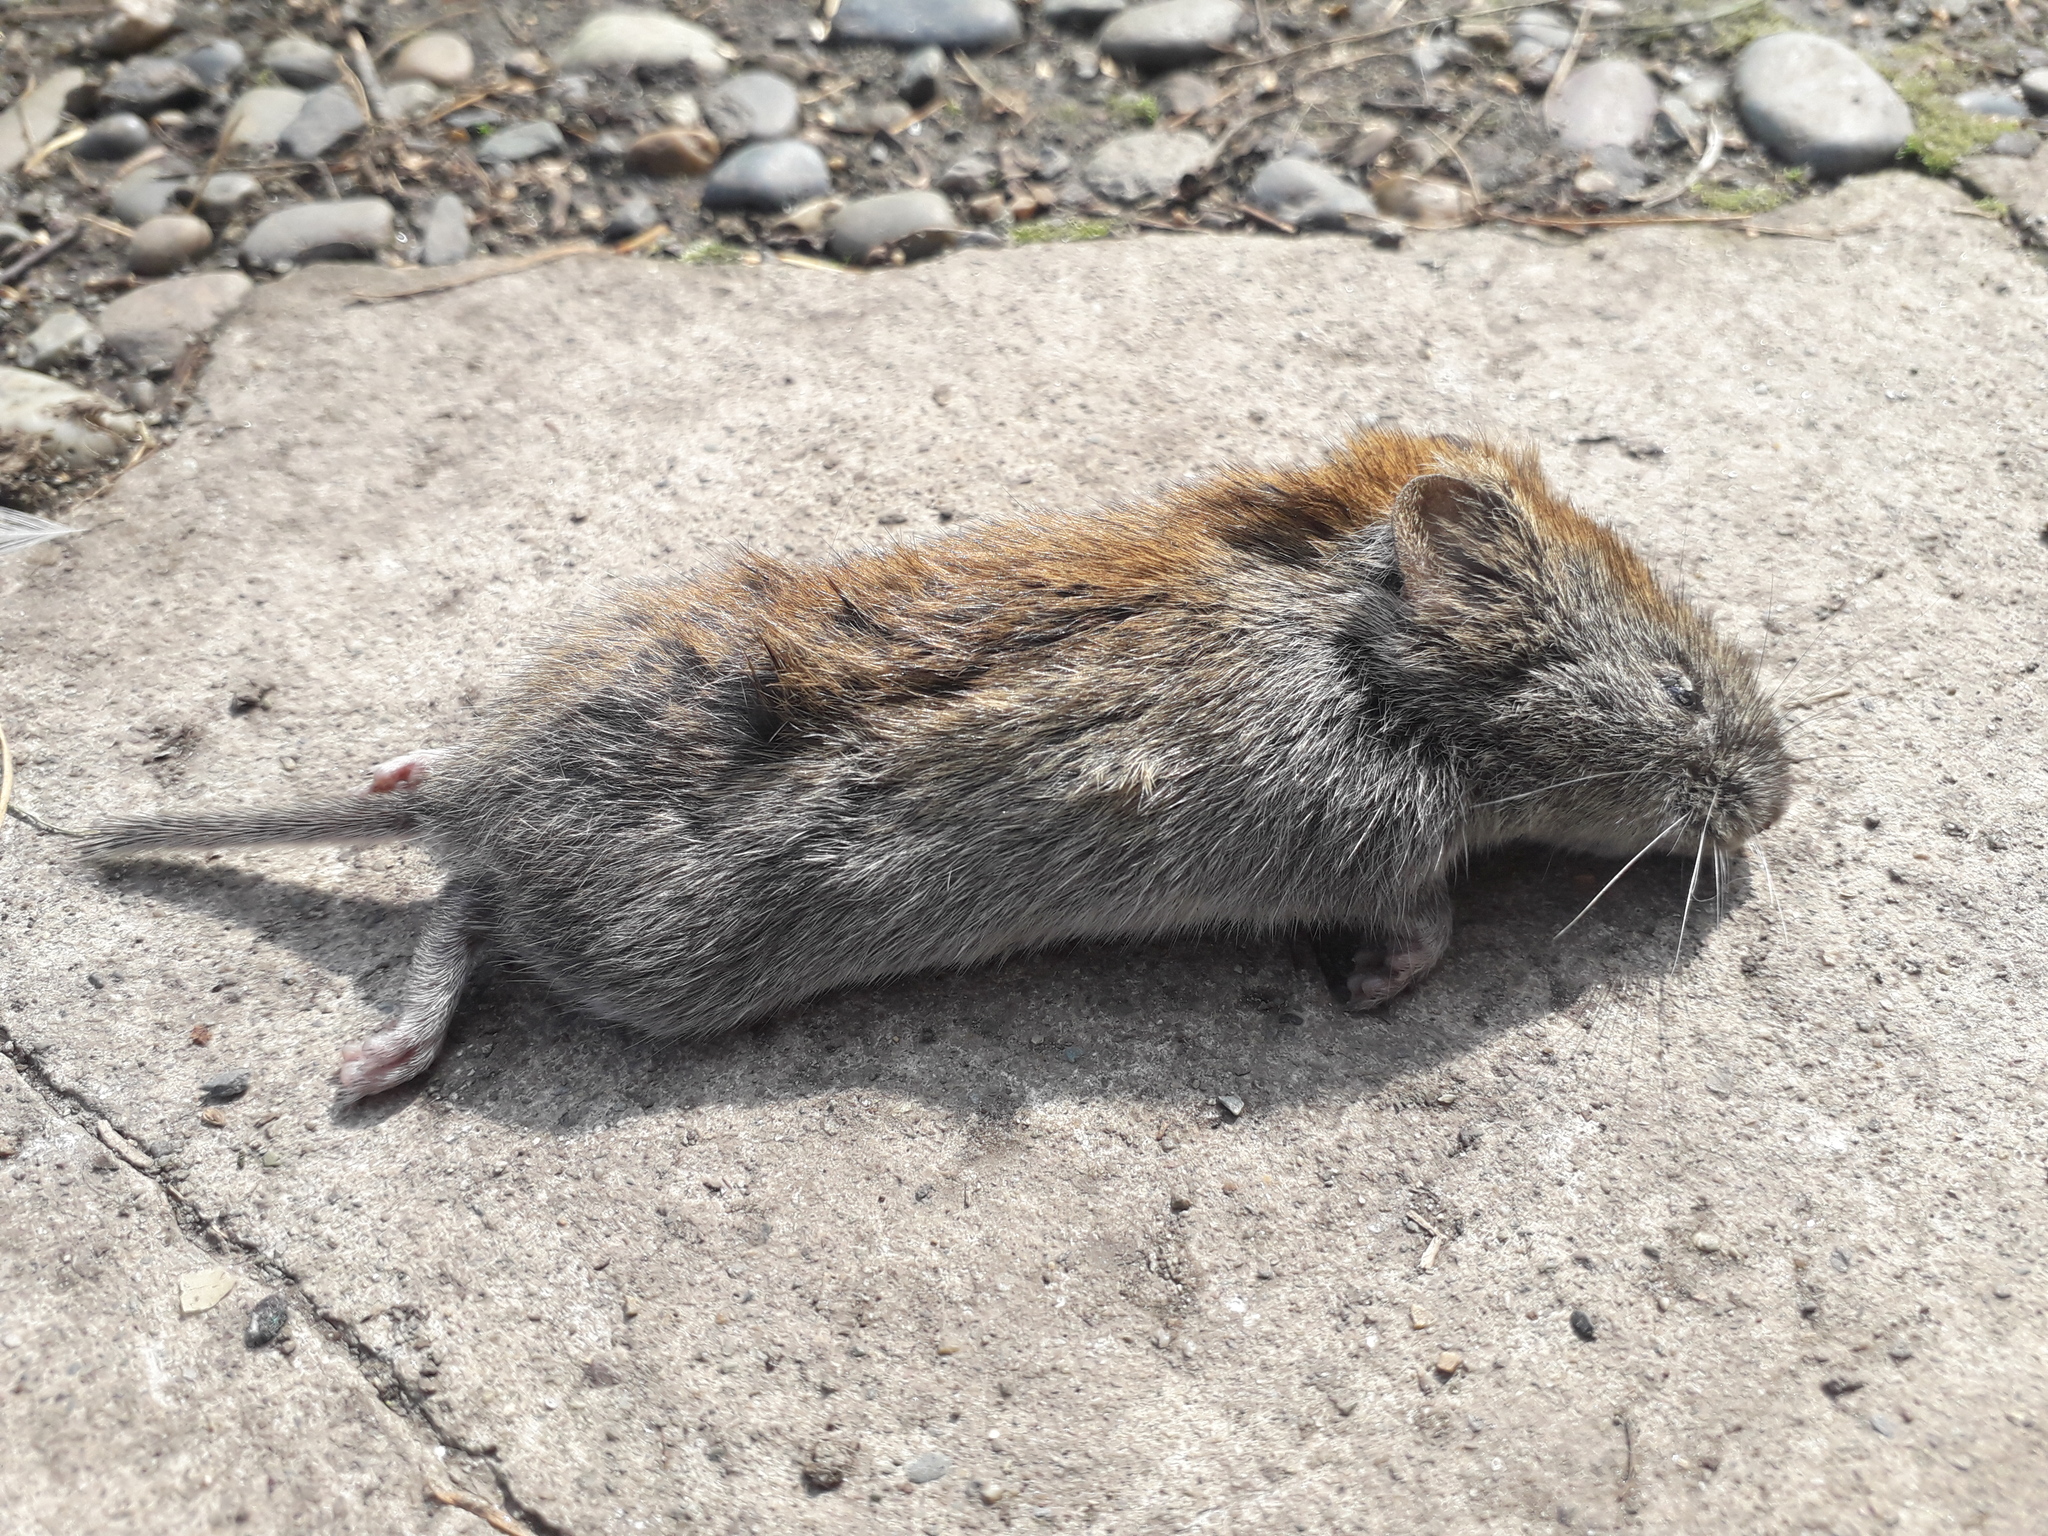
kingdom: Animalia
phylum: Chordata
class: Mammalia
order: Rodentia
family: Cricetidae
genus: Myodes
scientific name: Myodes rufocanus
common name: Gray red-backed vole
